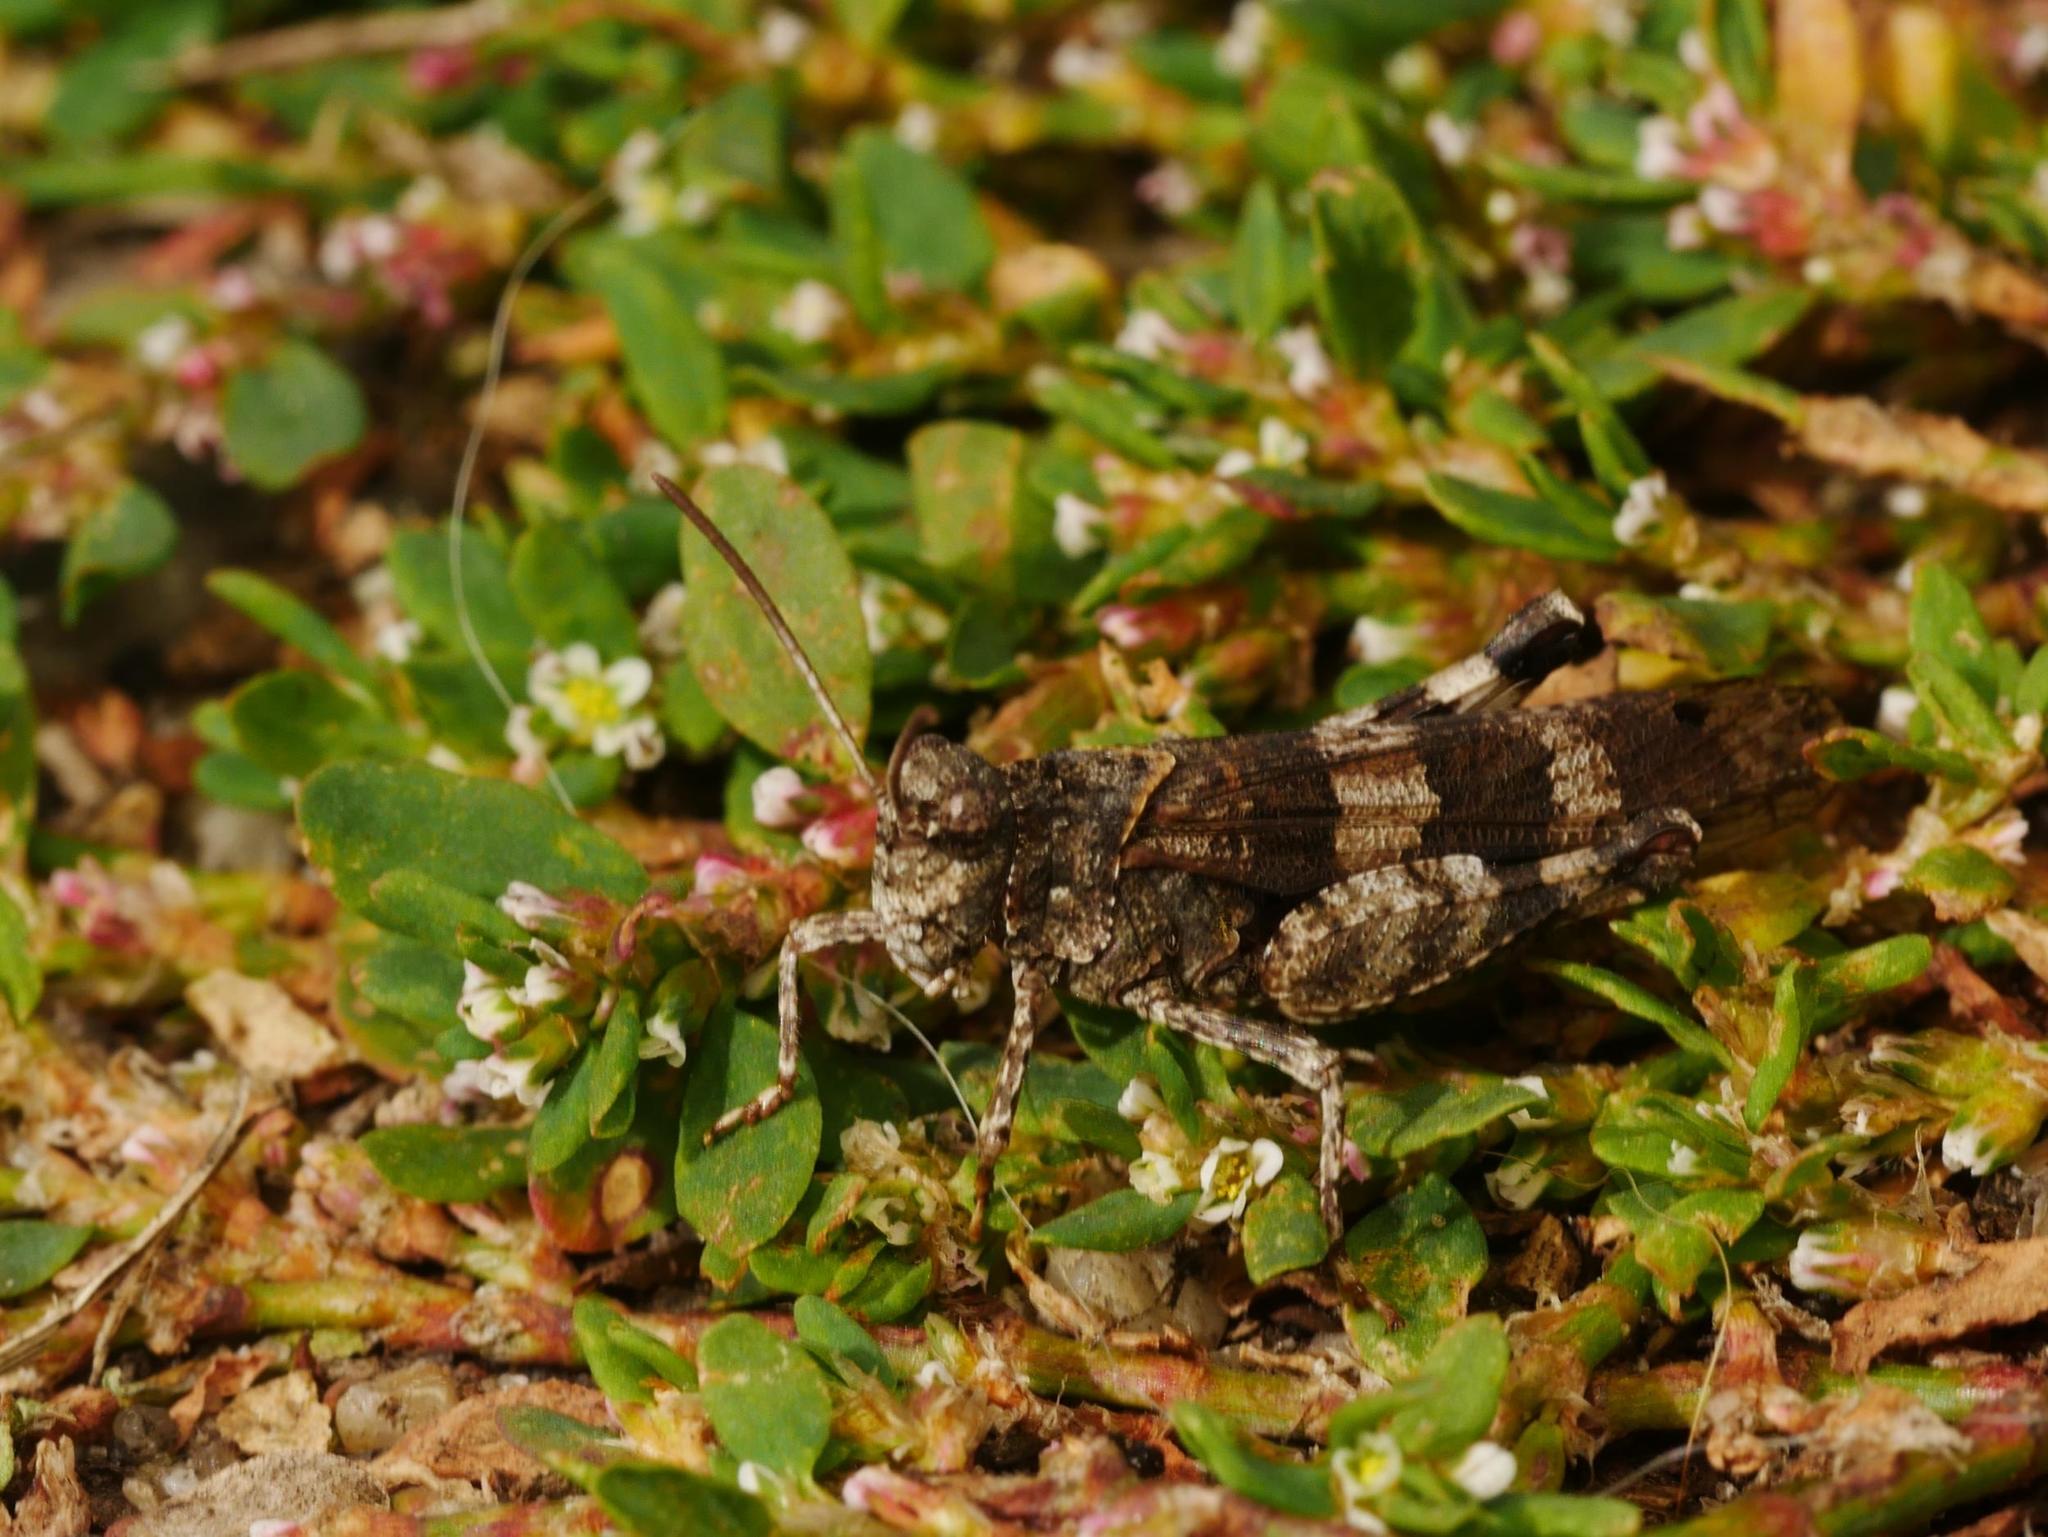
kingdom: Animalia
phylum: Arthropoda
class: Insecta
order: Orthoptera
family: Acrididae
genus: Oedipoda
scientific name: Oedipoda caerulescens
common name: Blue-winged grasshopper
